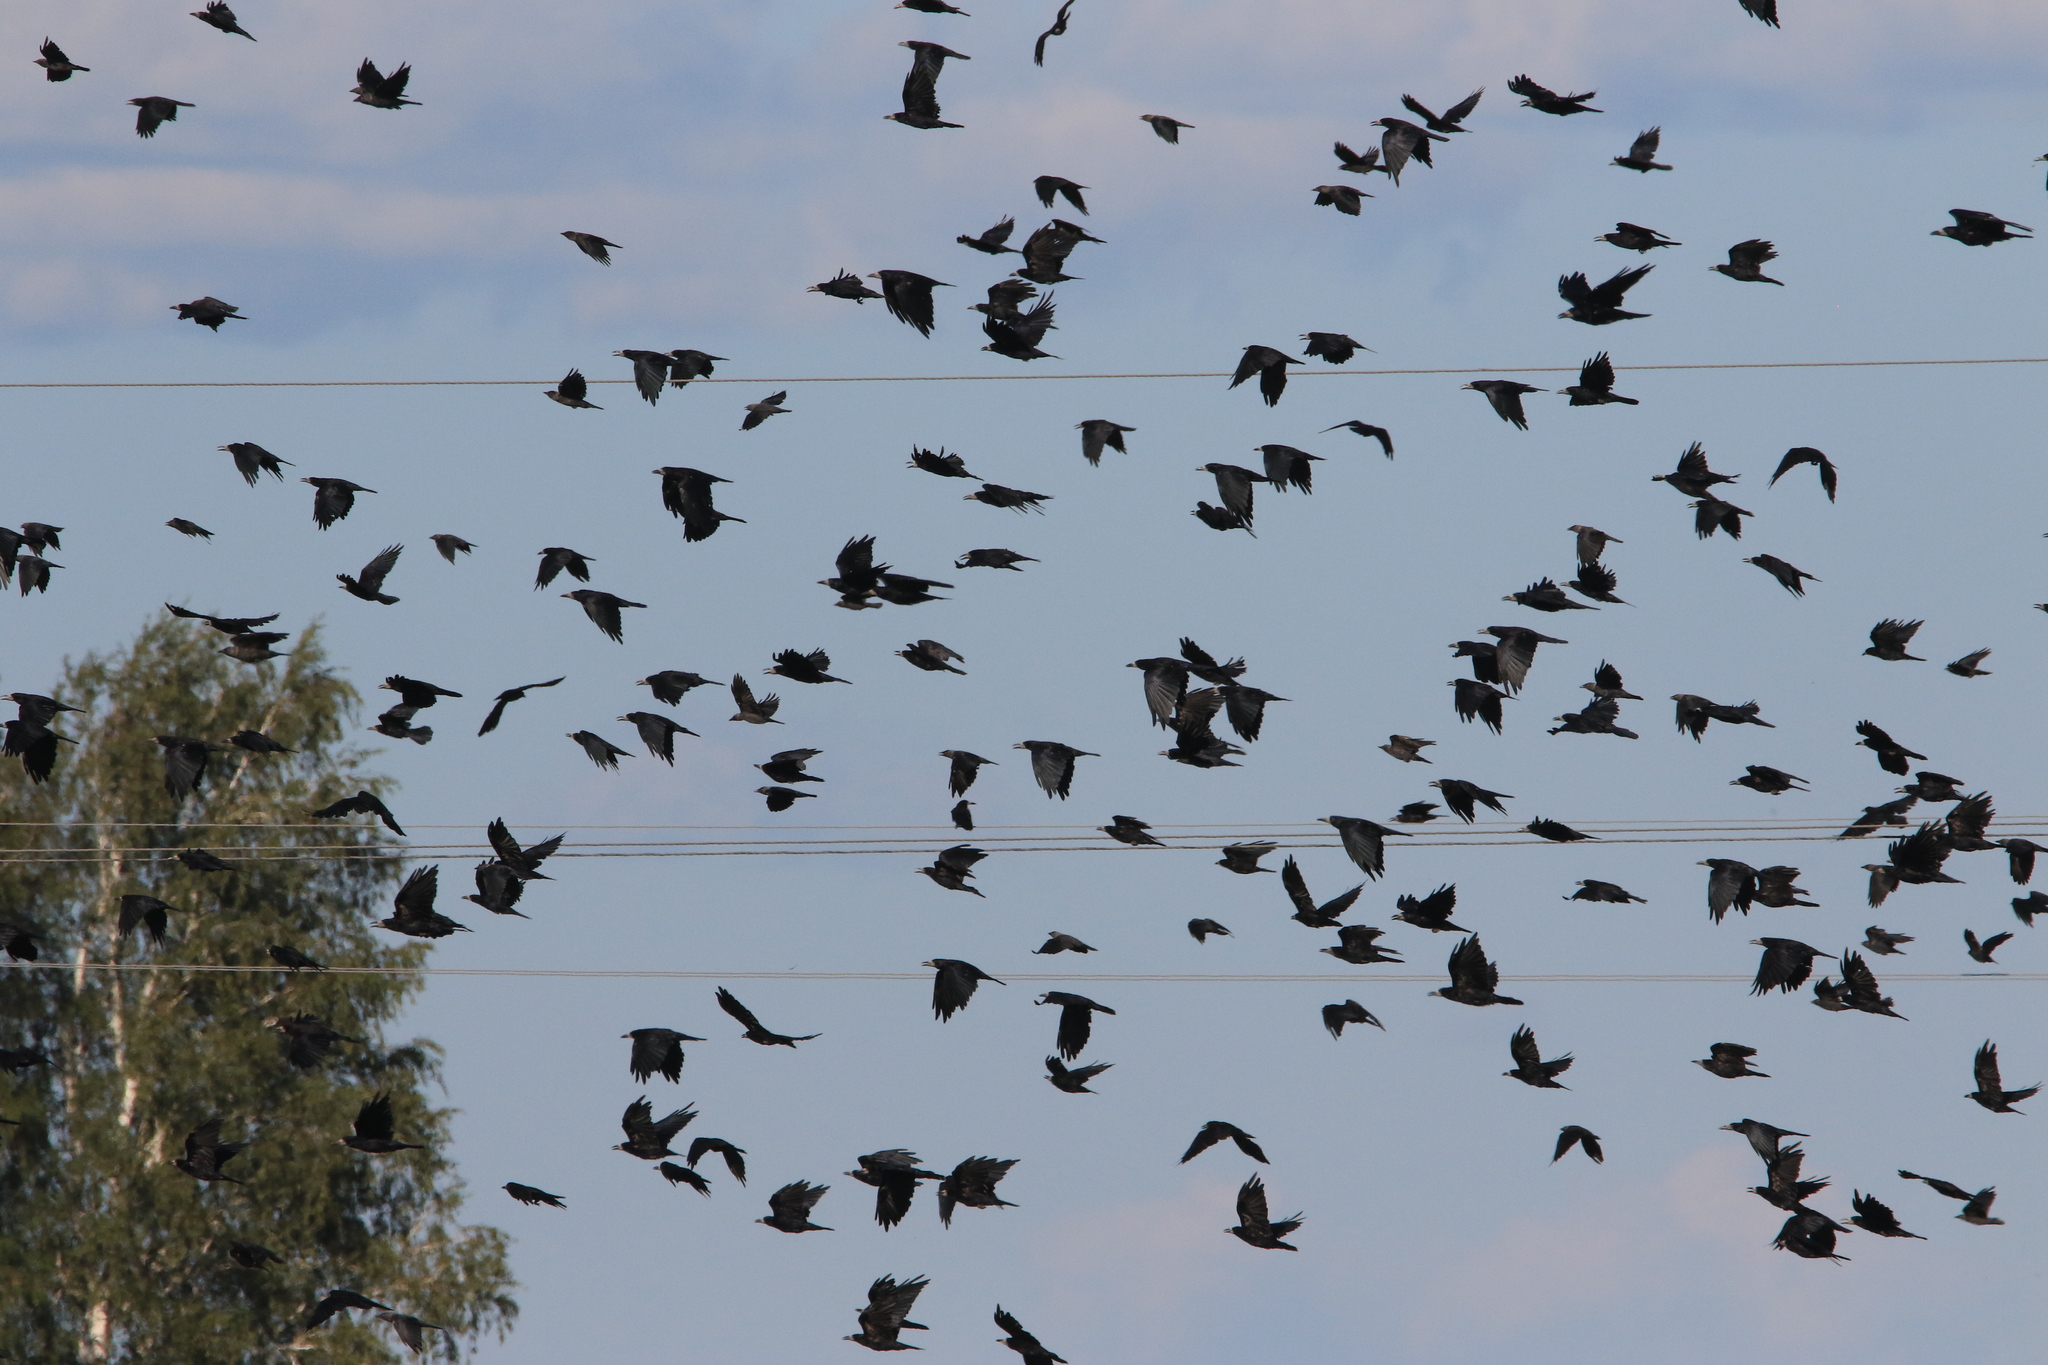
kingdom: Animalia
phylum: Chordata
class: Aves
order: Passeriformes
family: Corvidae
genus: Corvus
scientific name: Corvus frugilegus
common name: Rook
